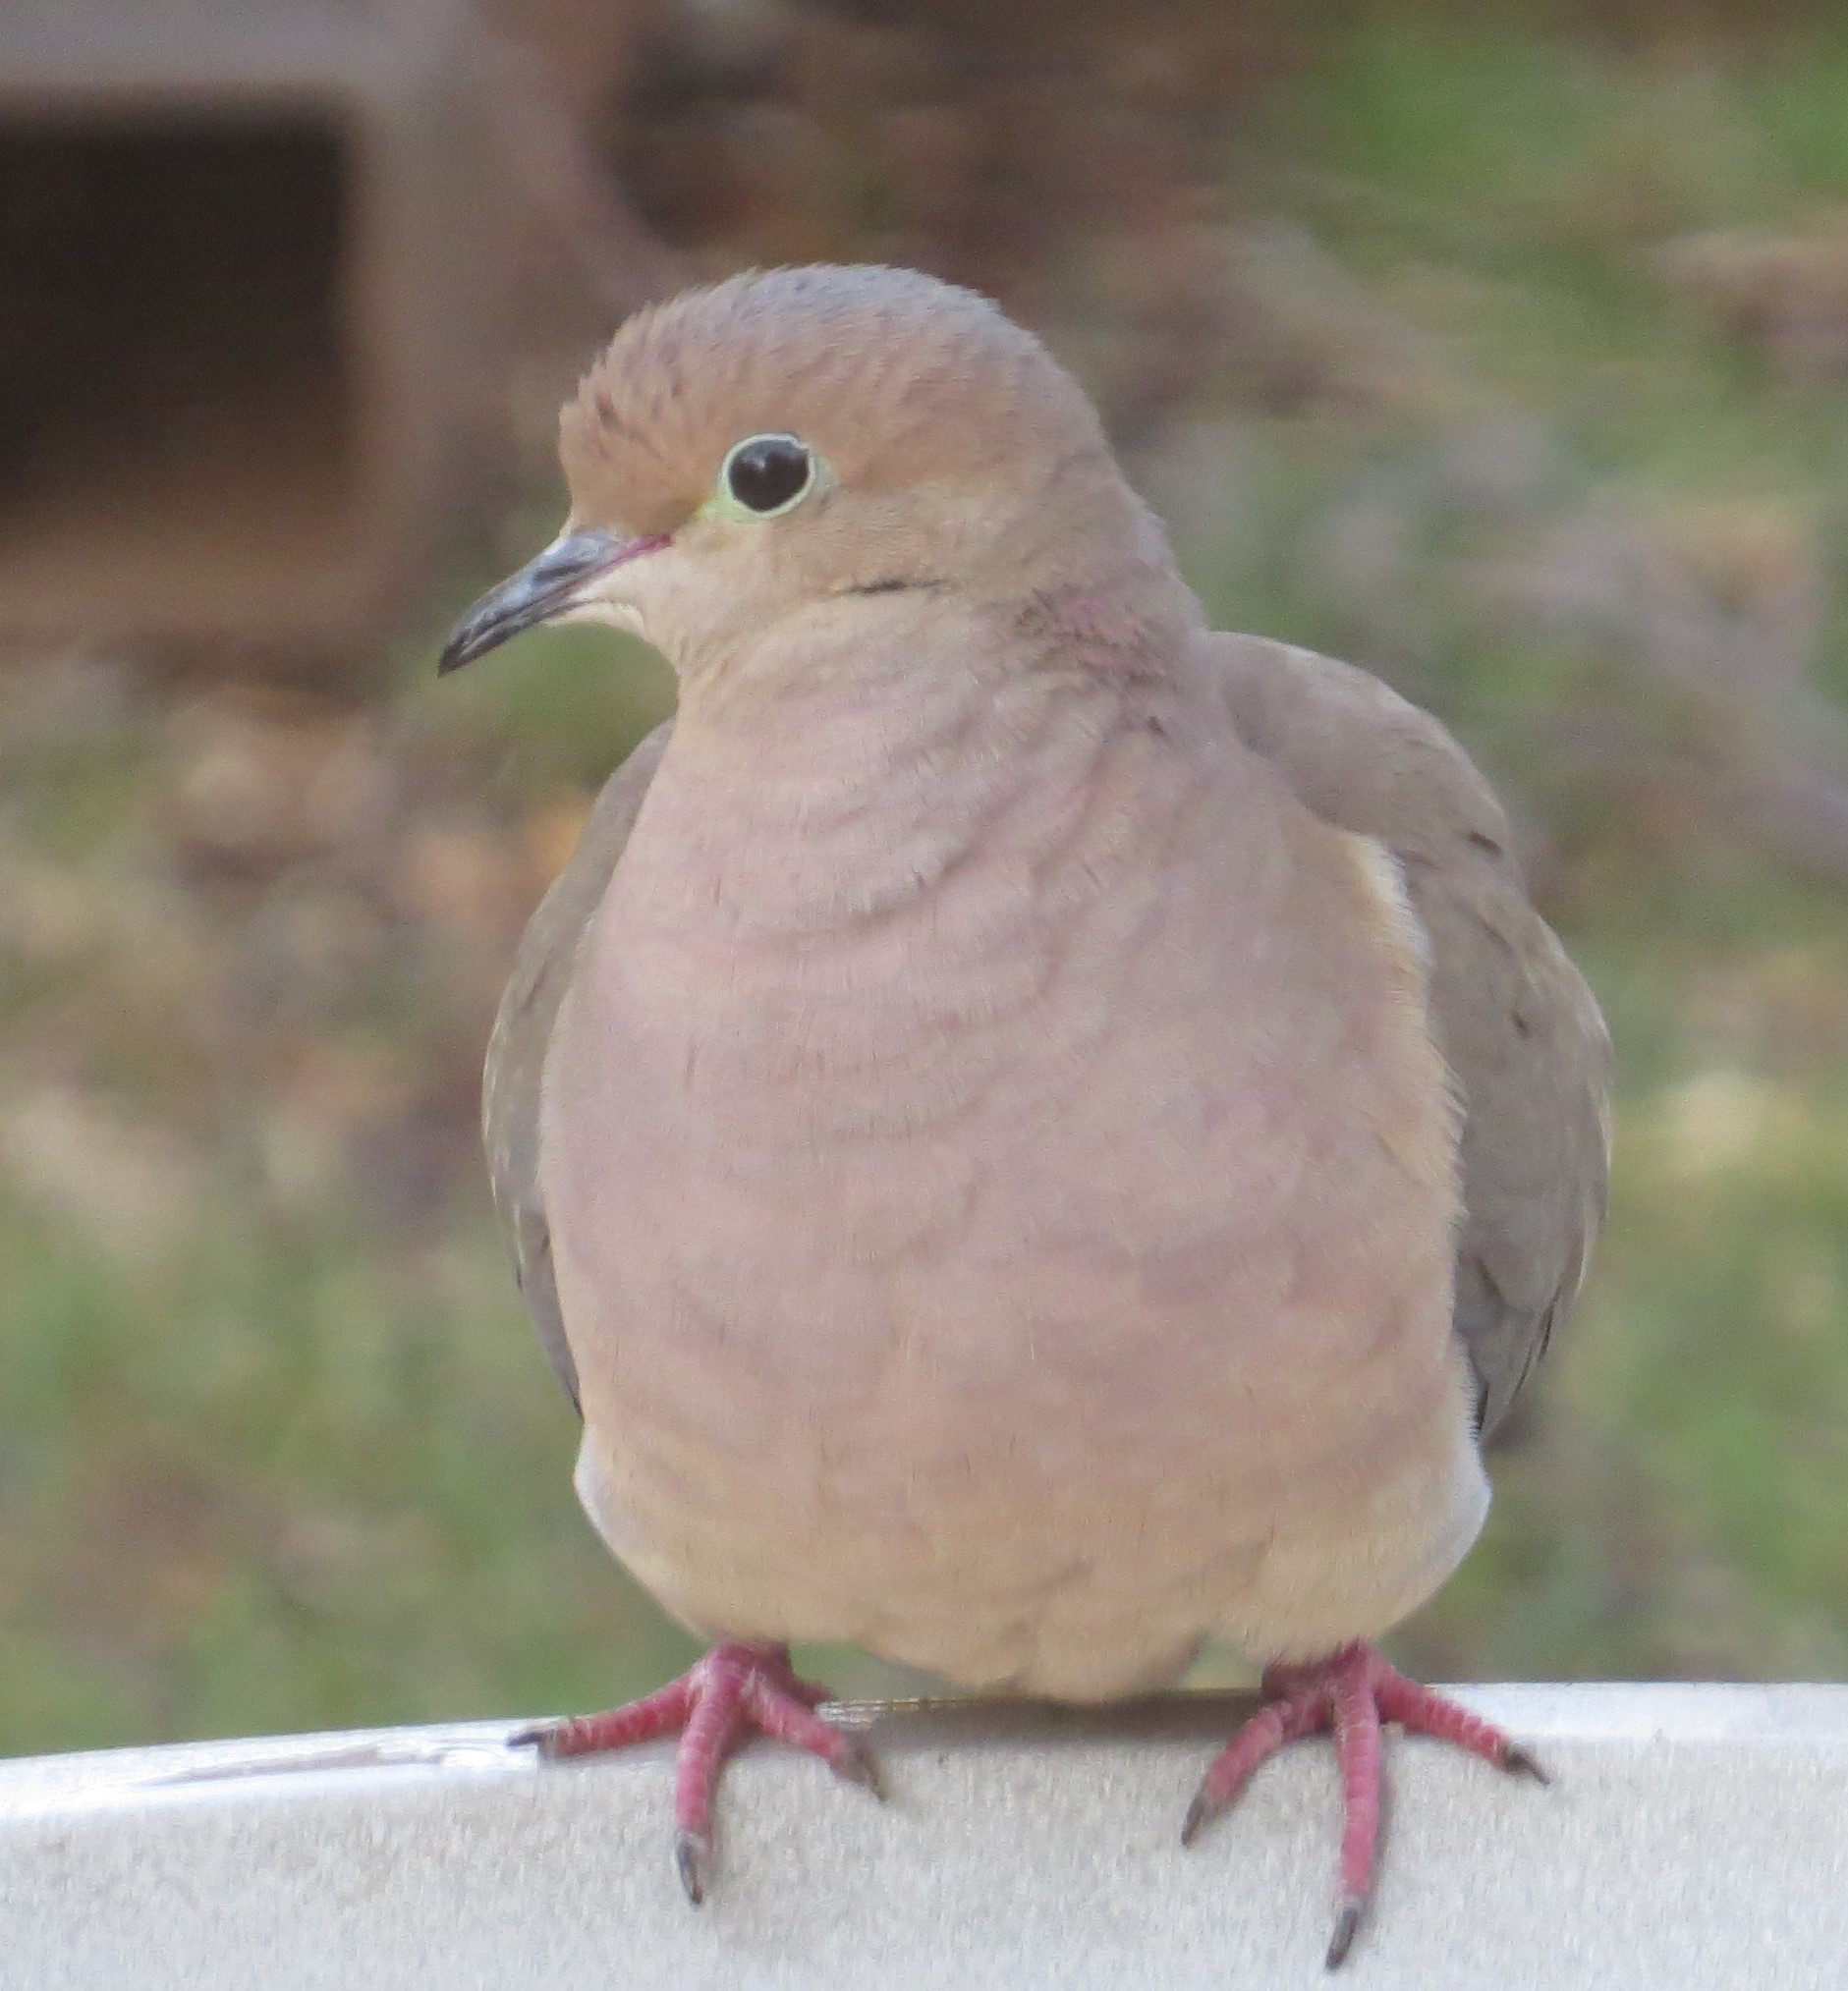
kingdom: Animalia
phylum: Chordata
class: Aves
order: Columbiformes
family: Columbidae
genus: Zenaida
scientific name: Zenaida macroura
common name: Mourning dove
